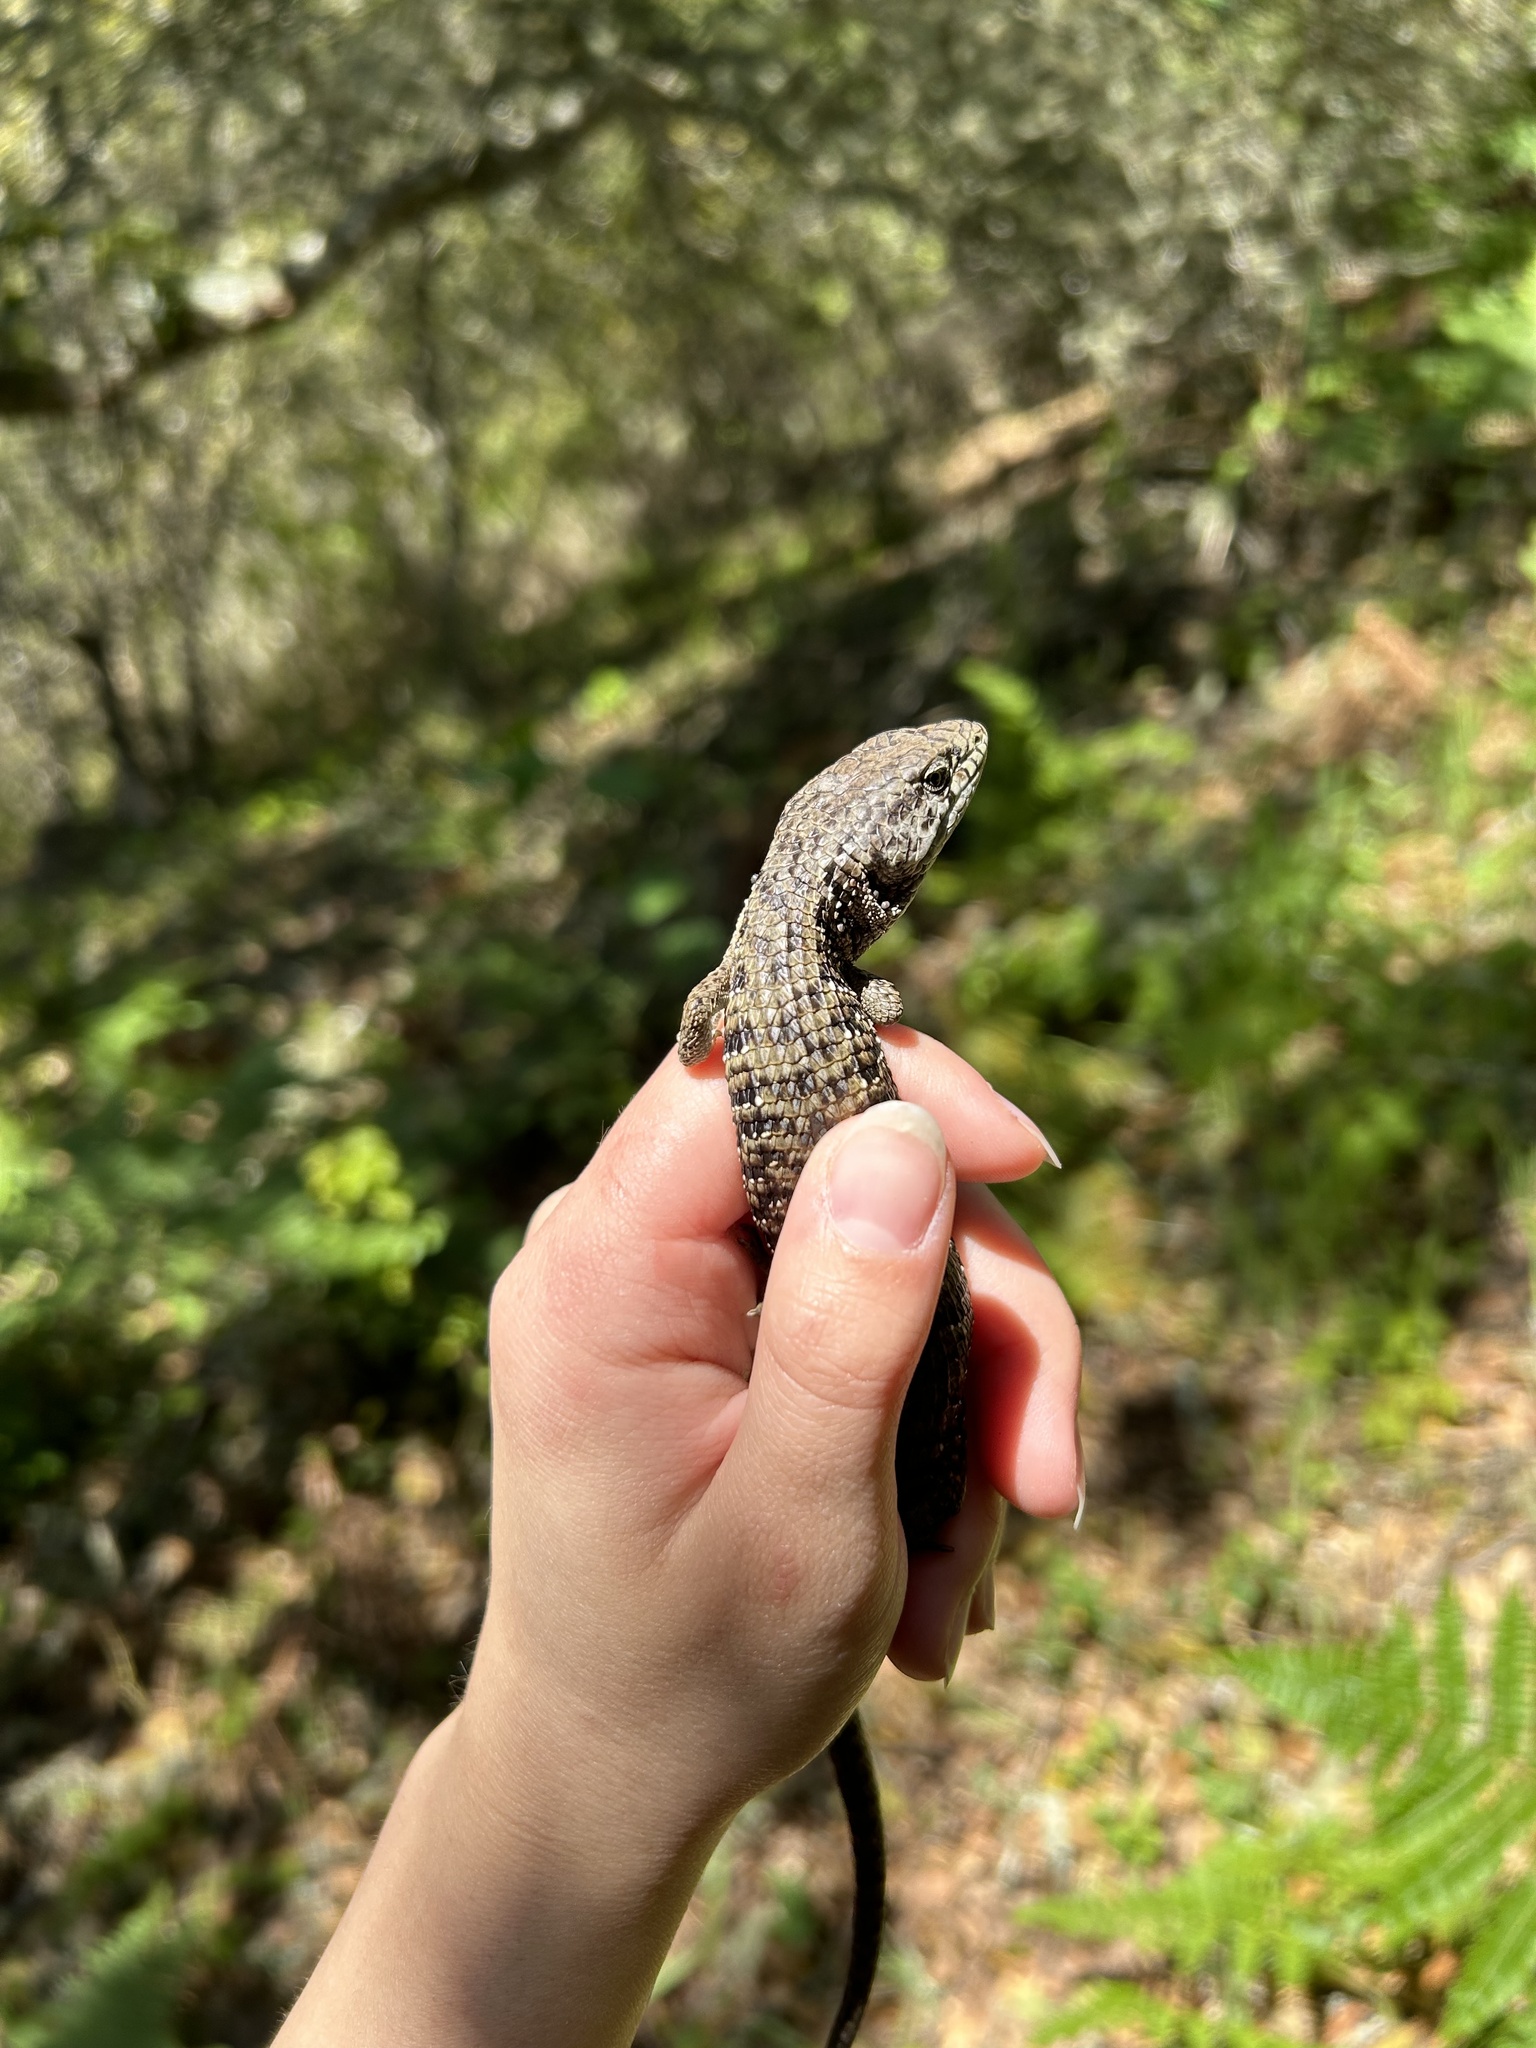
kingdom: Animalia
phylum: Chordata
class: Squamata
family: Anguidae
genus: Elgaria
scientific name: Elgaria coerulea
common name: Northern alligator lizard
